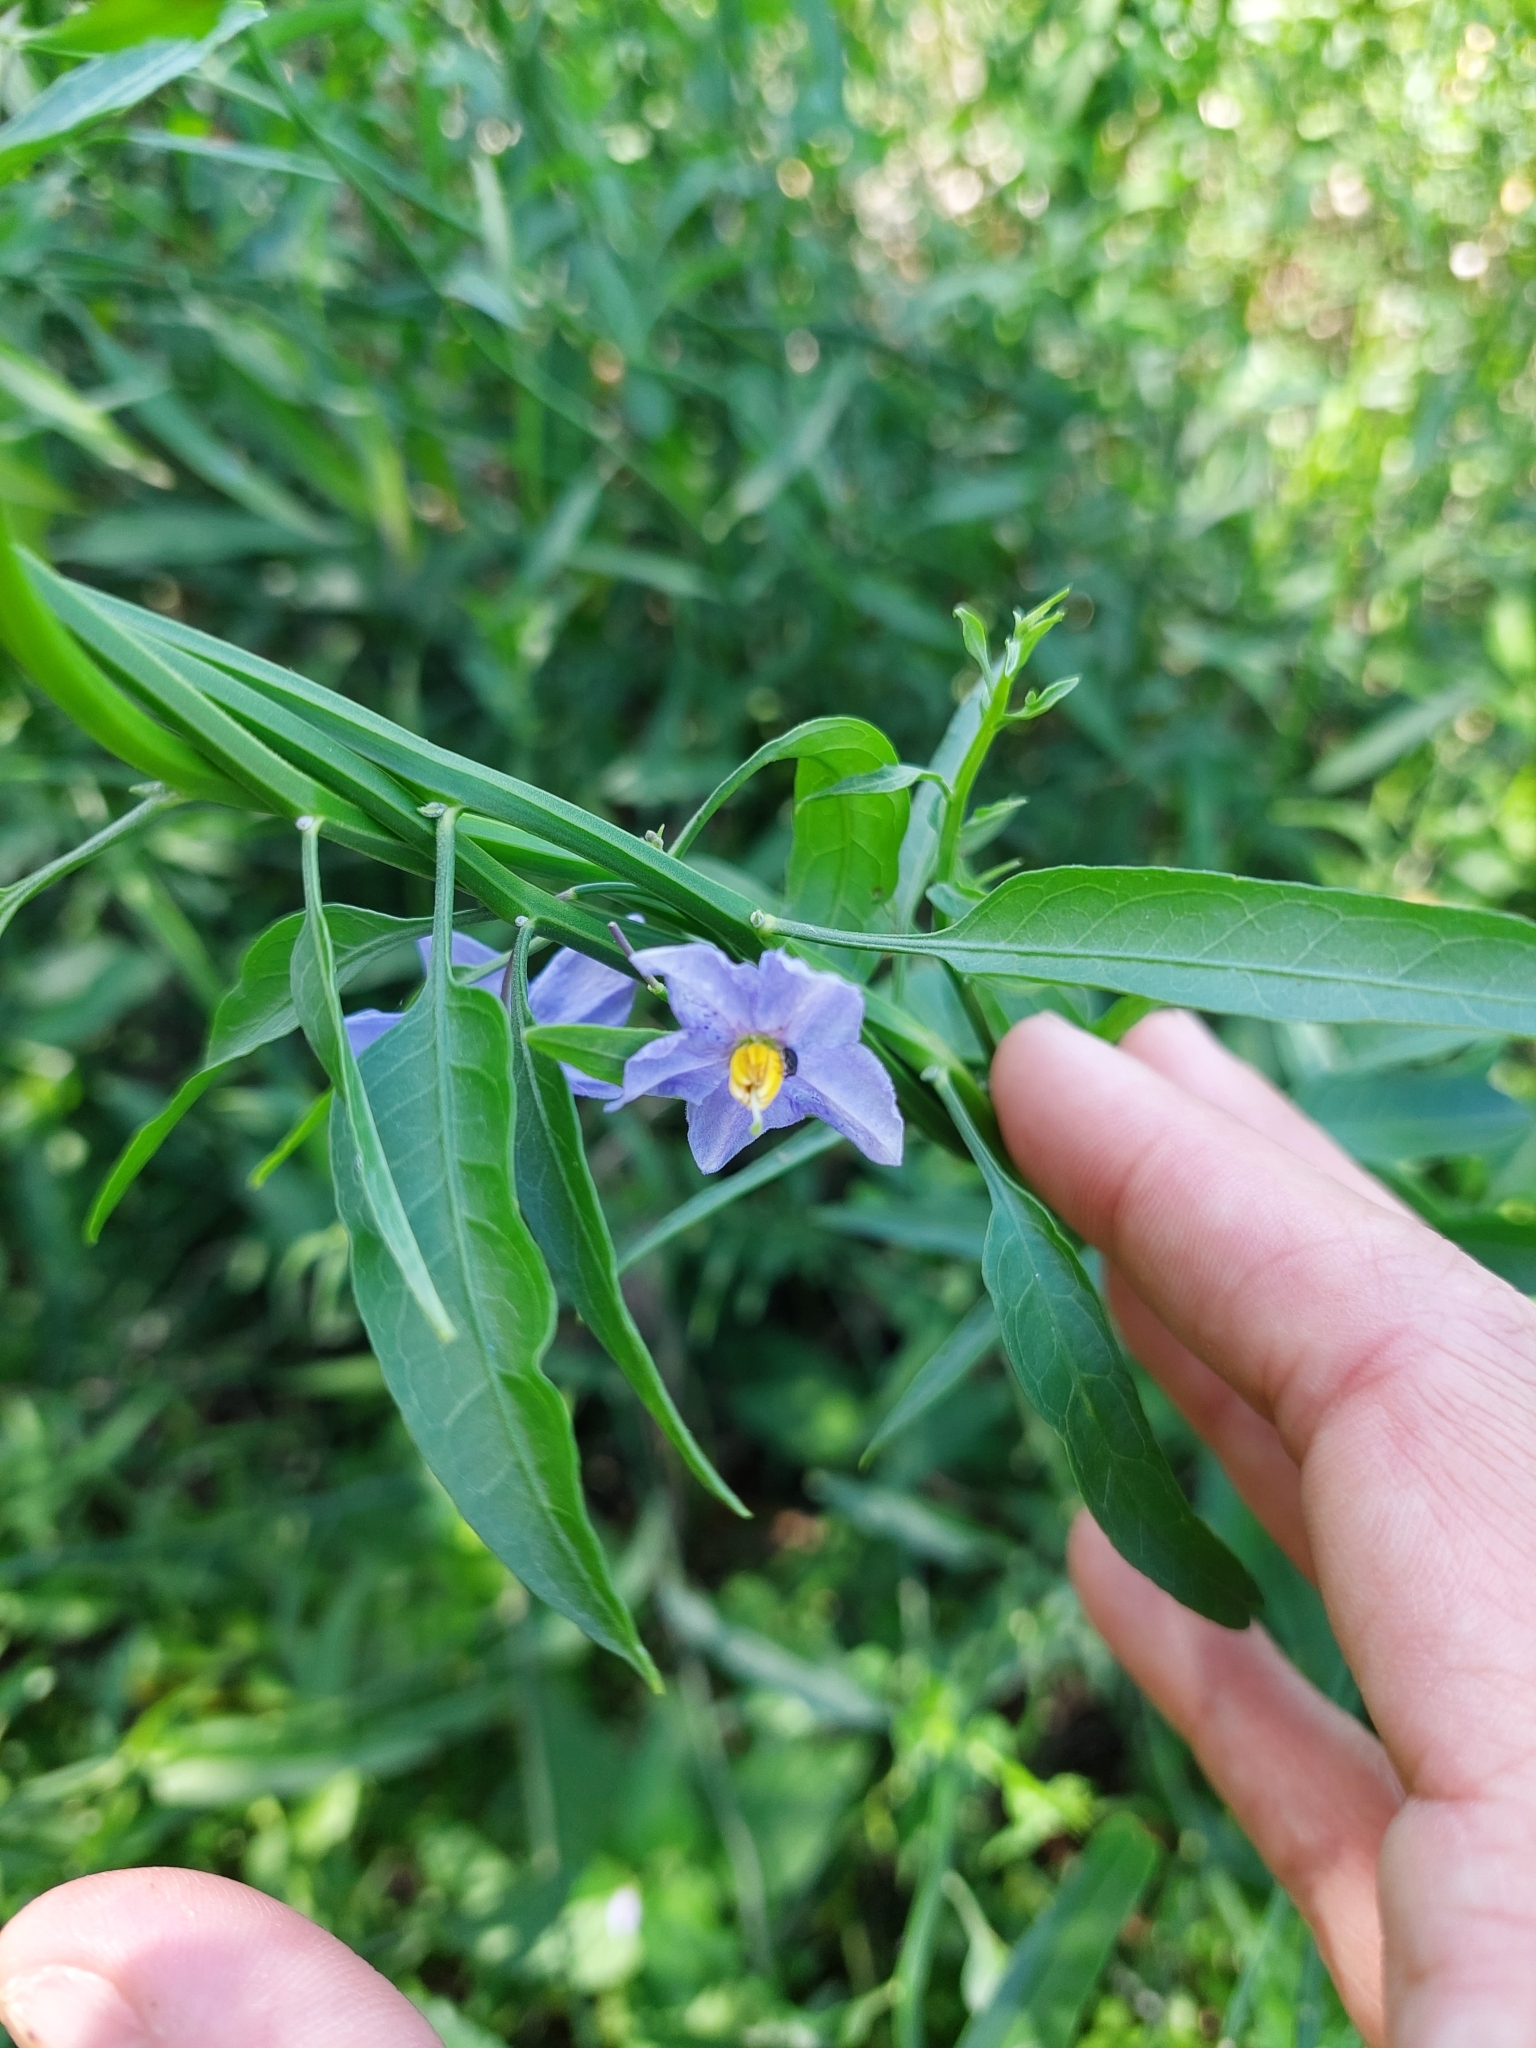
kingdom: Plantae
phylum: Tracheophyta
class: Magnoliopsida
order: Solanales
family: Solanaceae
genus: Solanum
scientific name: Solanum amygdalifolium
